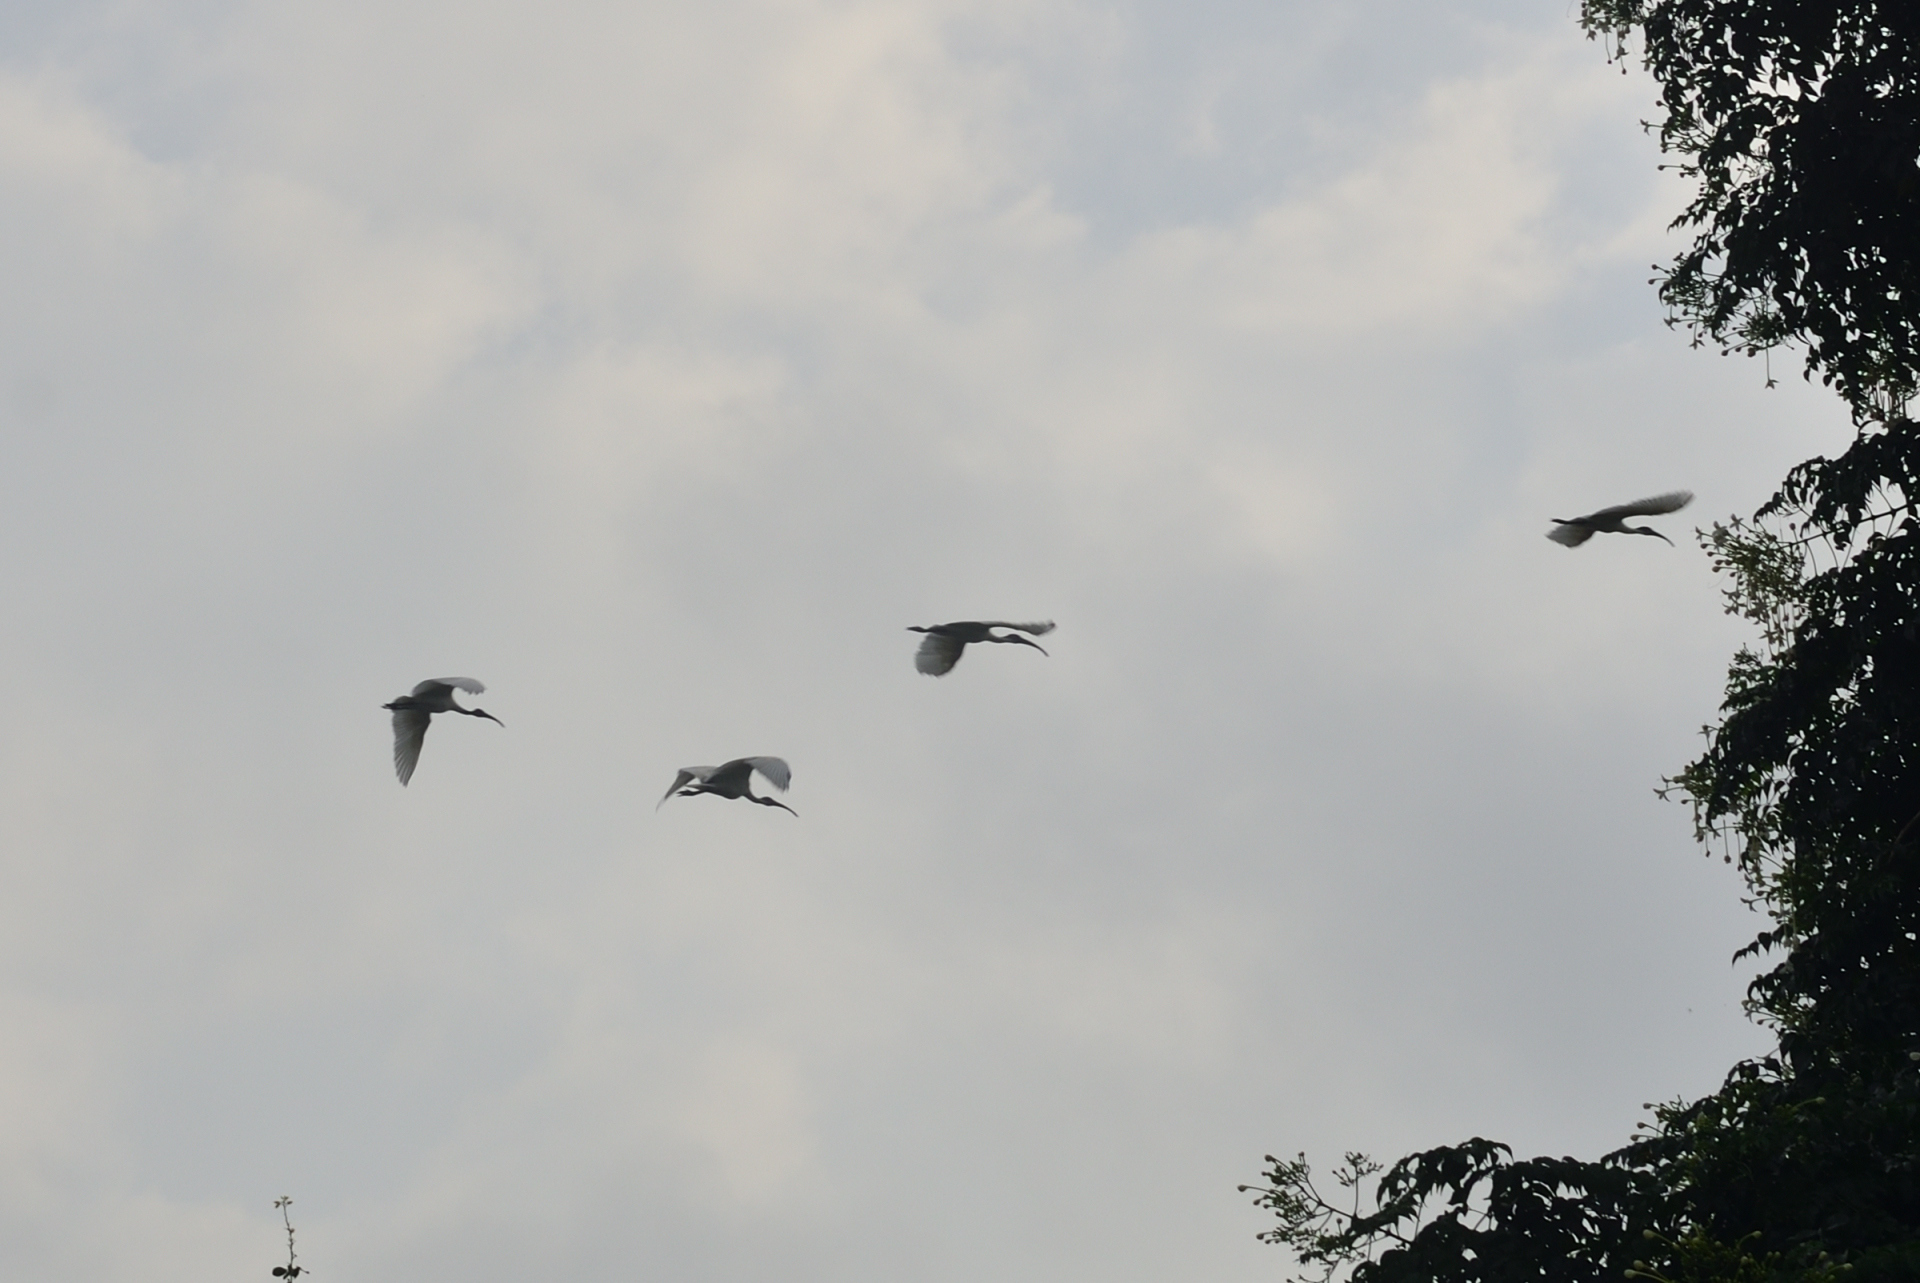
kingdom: Animalia
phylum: Chordata
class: Aves
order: Pelecaniformes
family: Threskiornithidae
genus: Threskiornis
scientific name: Threskiornis melanocephalus
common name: Black-headed ibis
